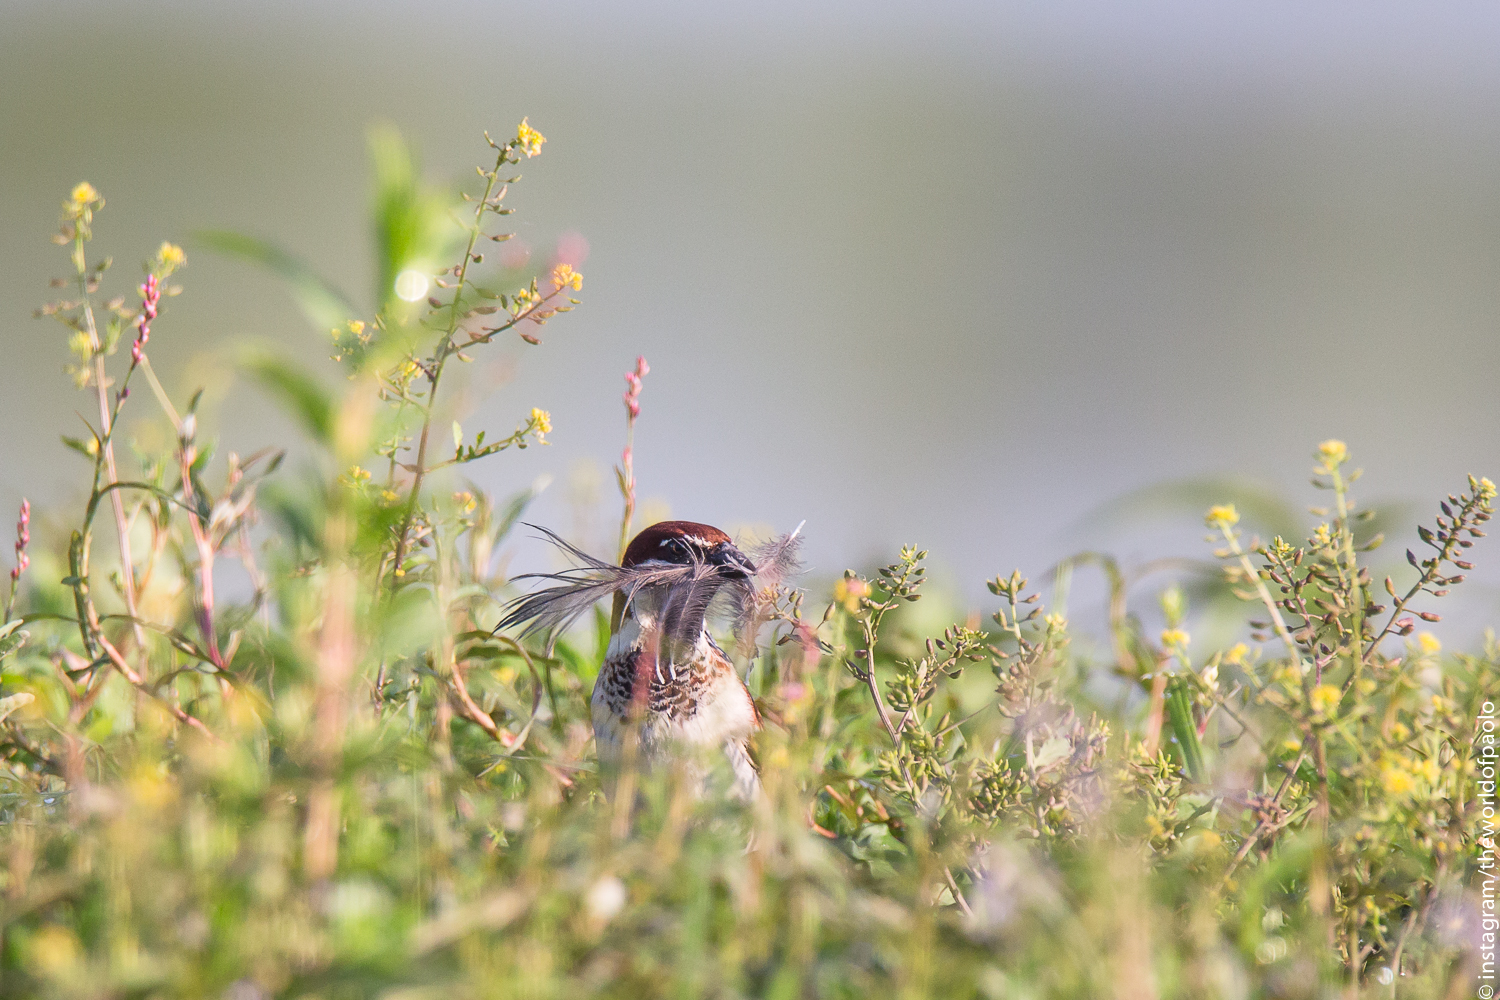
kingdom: Animalia
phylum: Chordata
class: Aves
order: Passeriformes
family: Passeridae
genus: Passer
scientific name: Passer italiae
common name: Italian sparrow
